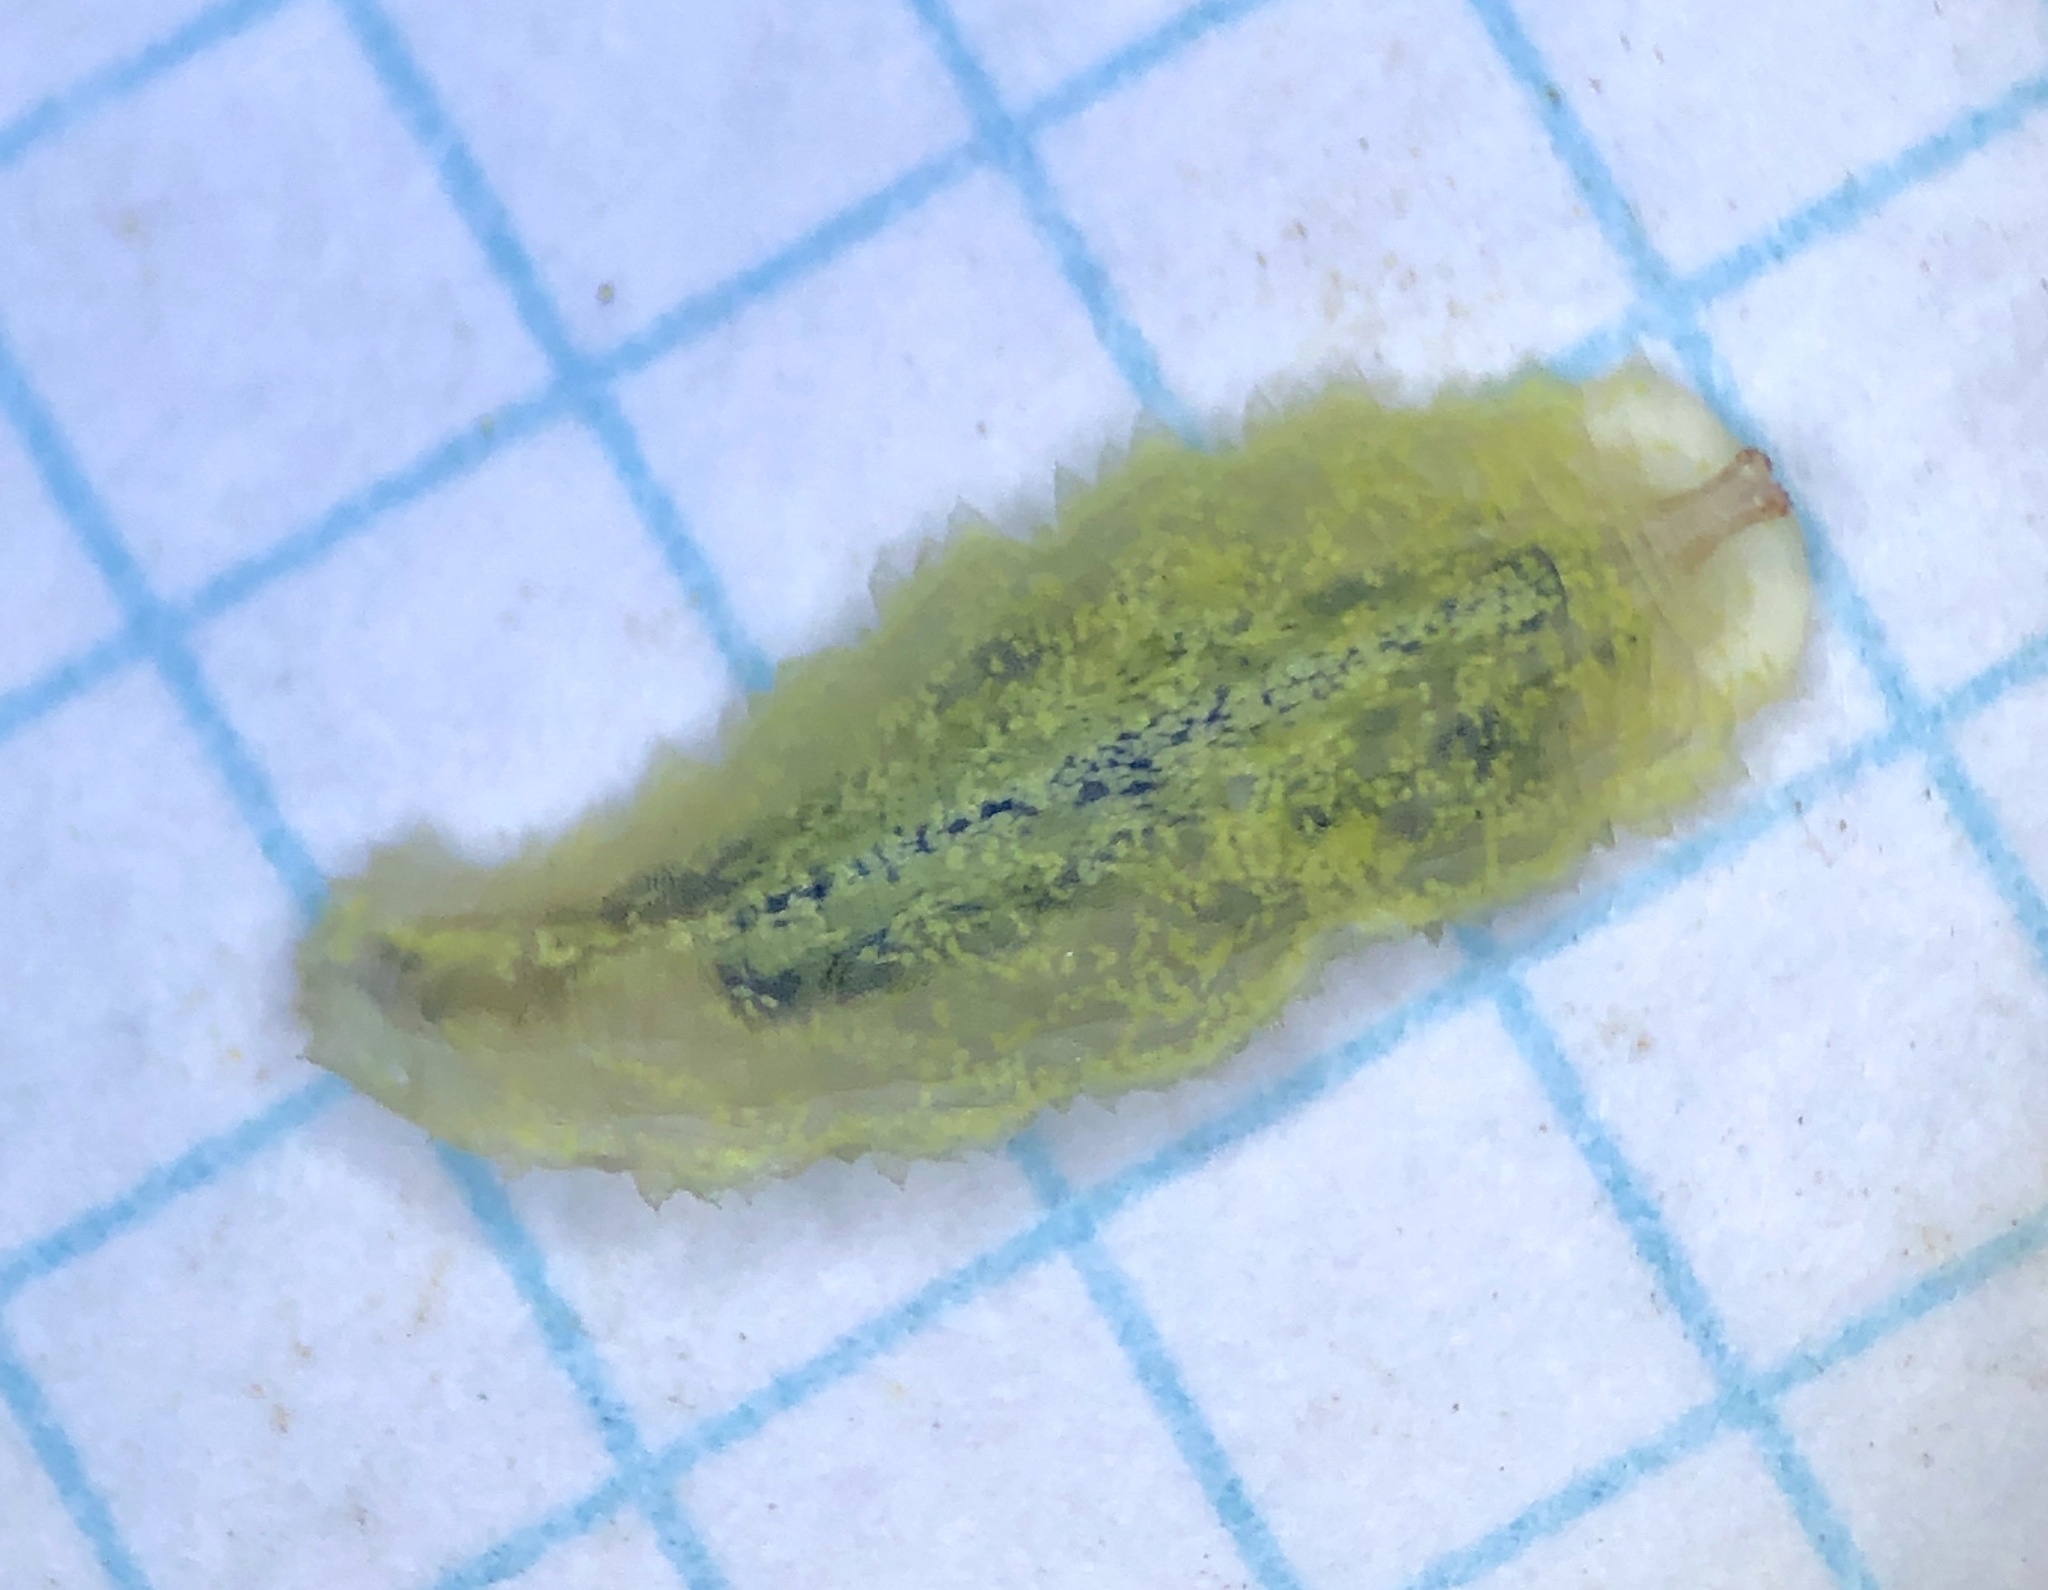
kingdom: Animalia
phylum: Arthropoda
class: Insecta
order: Diptera
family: Syrphidae
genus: Epistrophella
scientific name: Epistrophella emarginata
